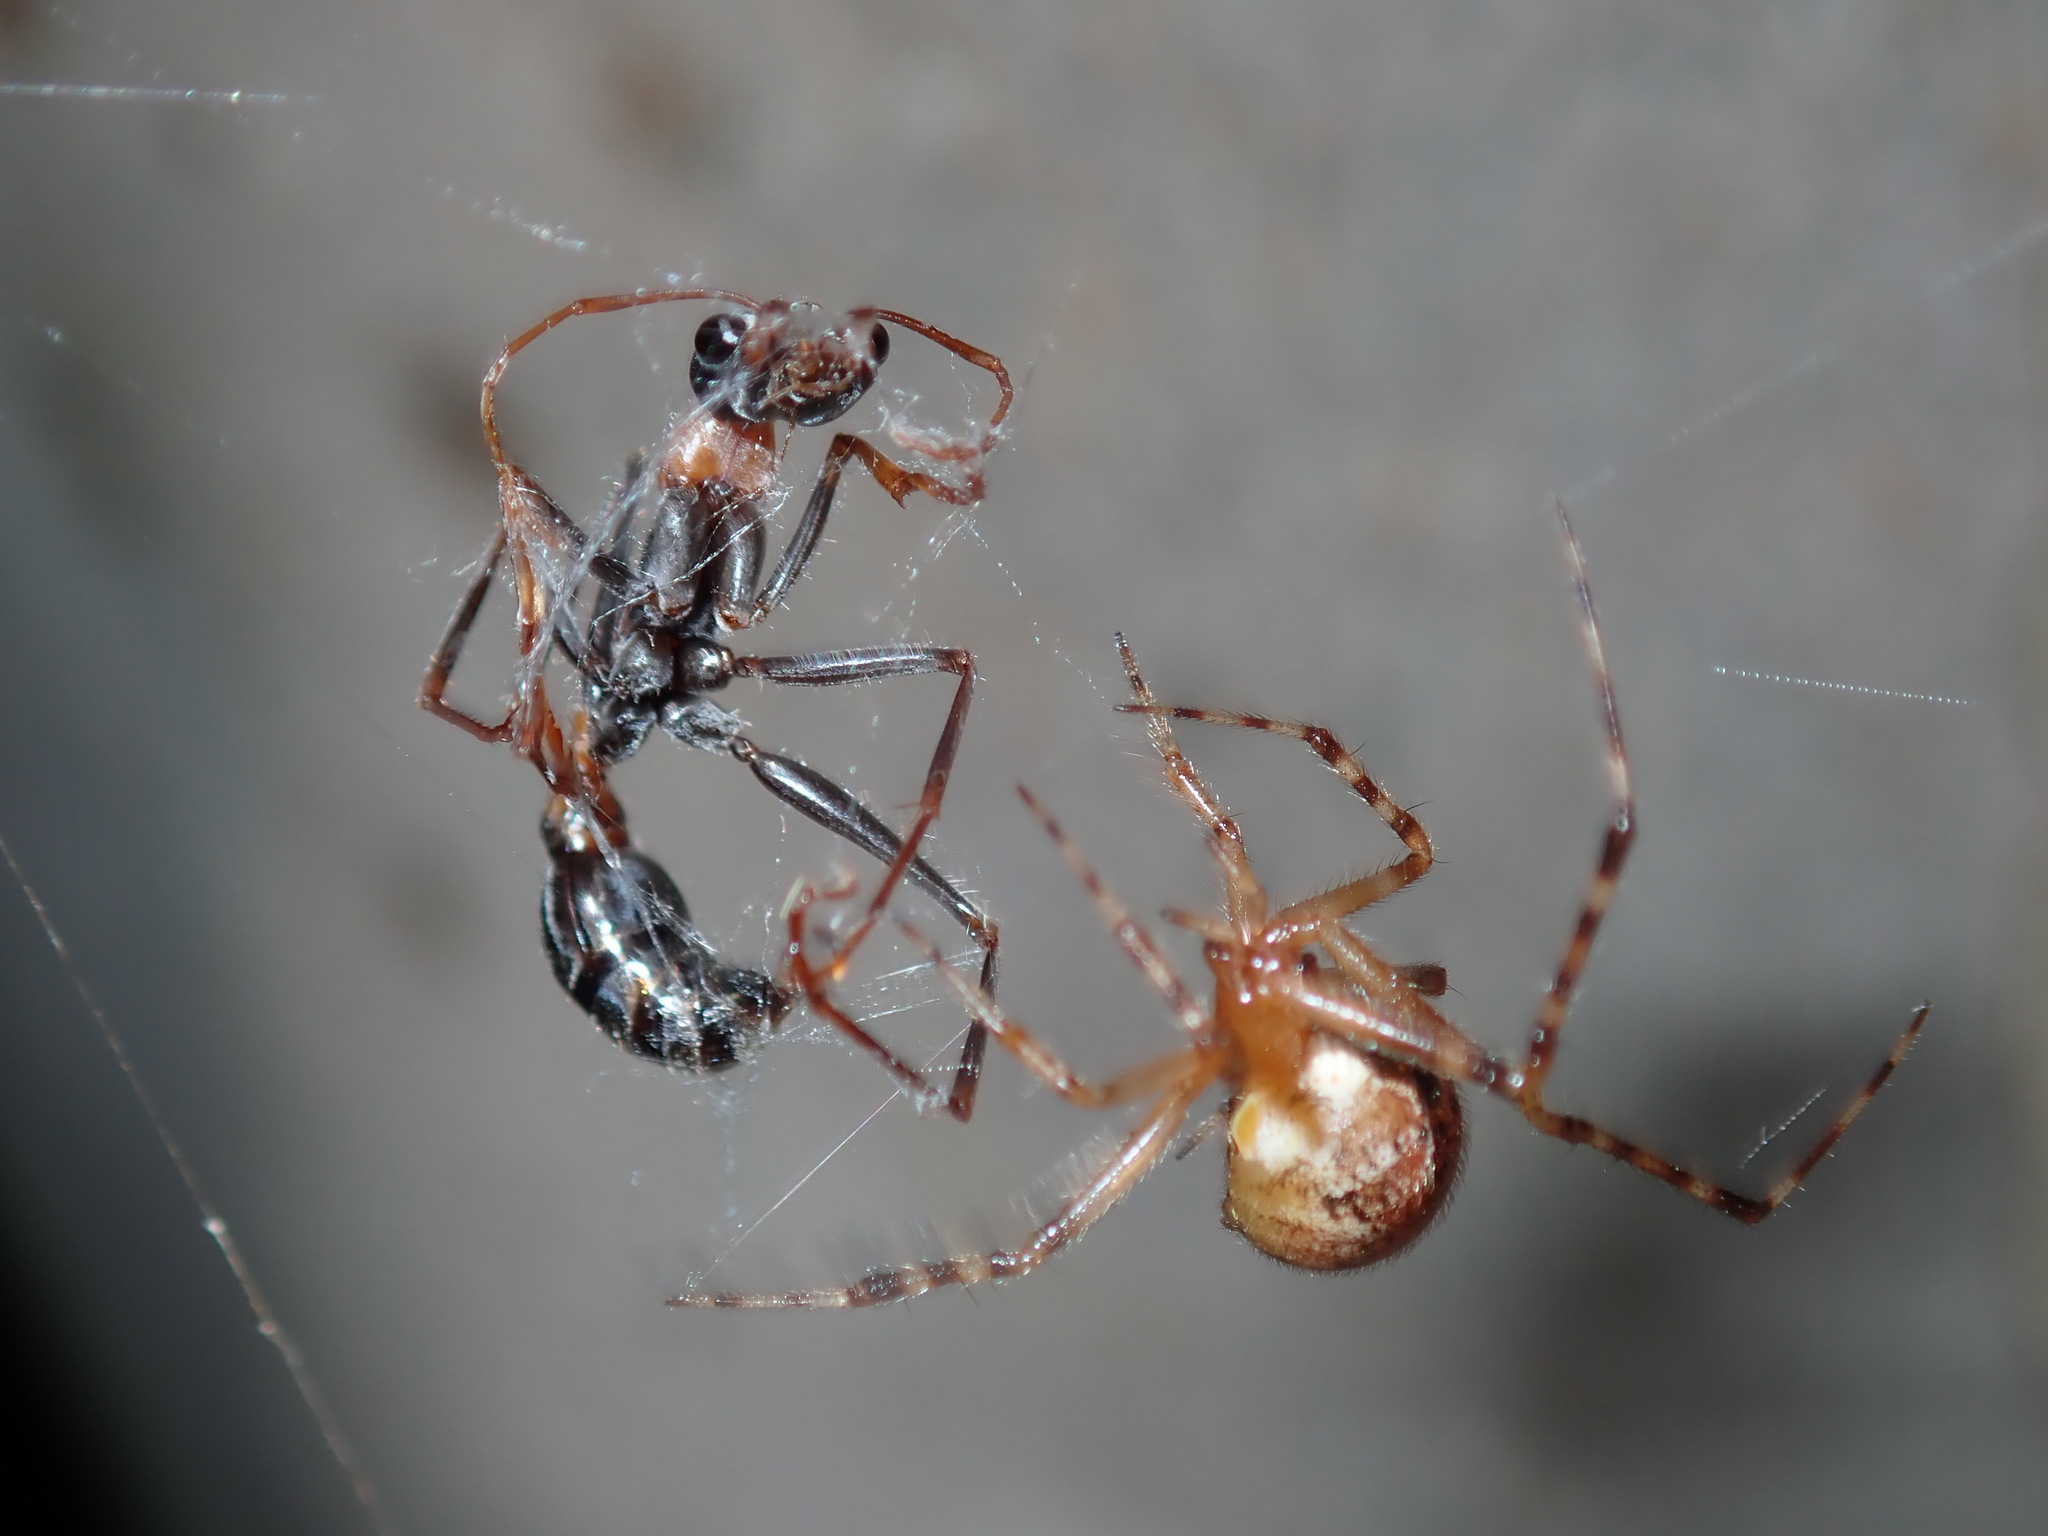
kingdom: Animalia
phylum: Arthropoda
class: Insecta
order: Hymenoptera
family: Formicidae
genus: Myrmecia
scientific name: Myrmecia nigrocincta
